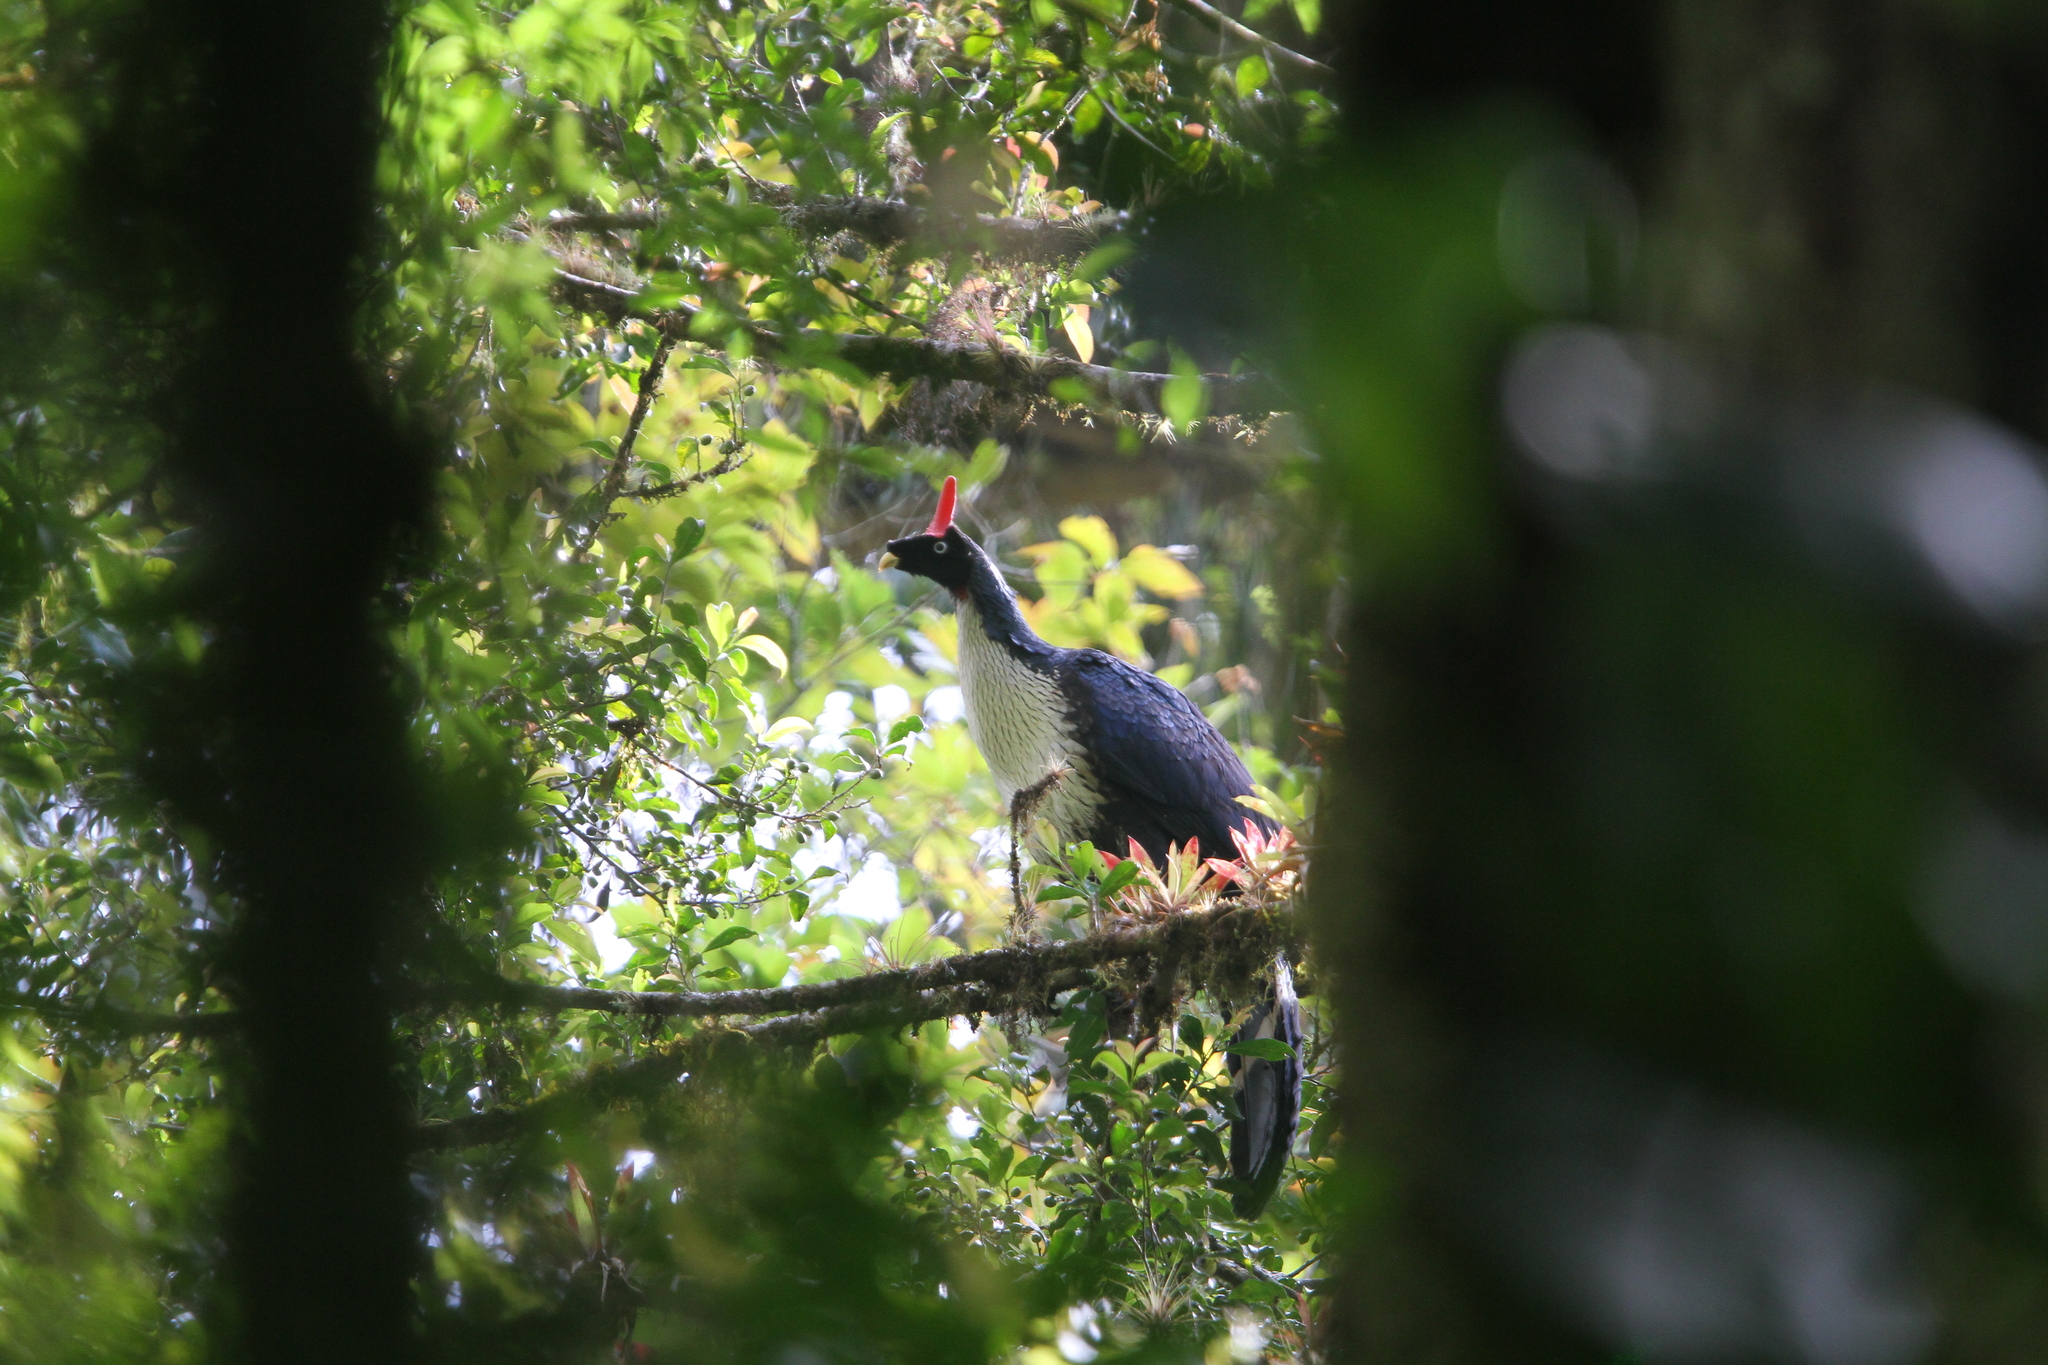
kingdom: Animalia
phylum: Chordata
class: Aves
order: Galliformes
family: Cracidae
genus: Oreophasis
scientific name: Oreophasis derbianus
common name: Horned guan
